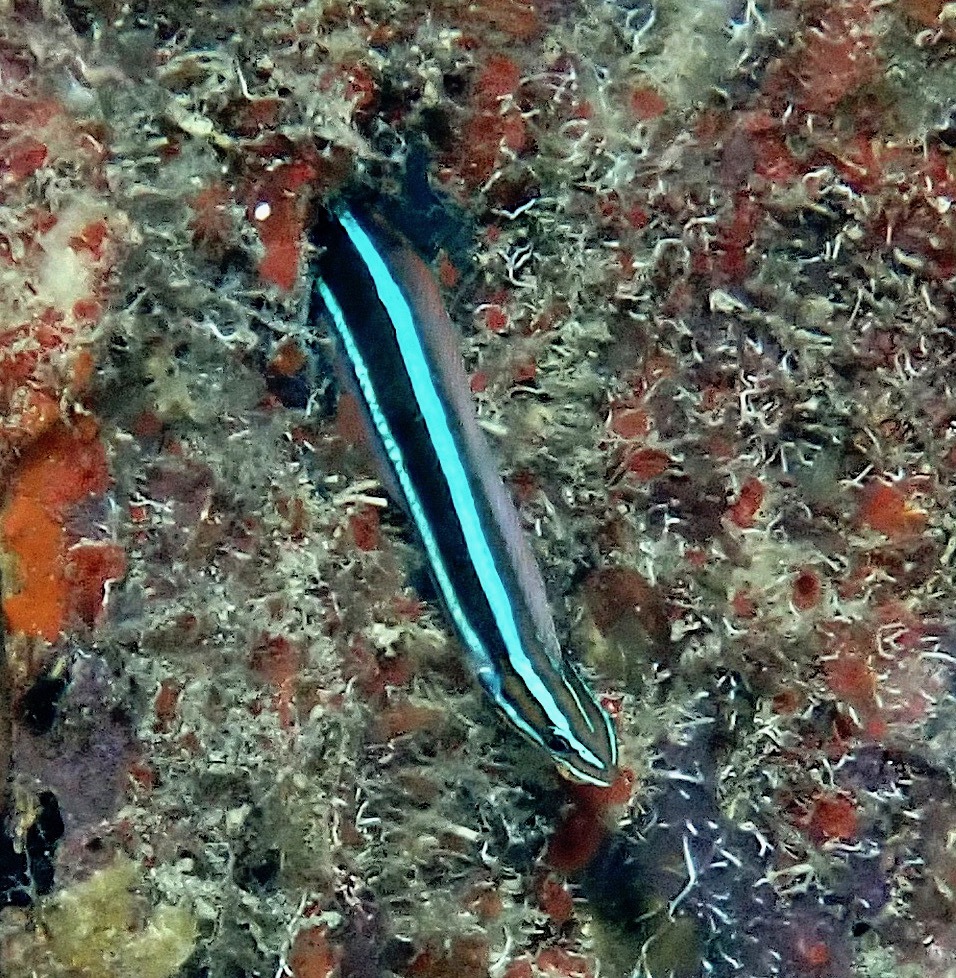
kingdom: Animalia
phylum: Chordata
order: Perciformes
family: Blenniidae
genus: Plagiotremus
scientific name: Plagiotremus rhinorhynchos
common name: Bluestriped fangblenny
